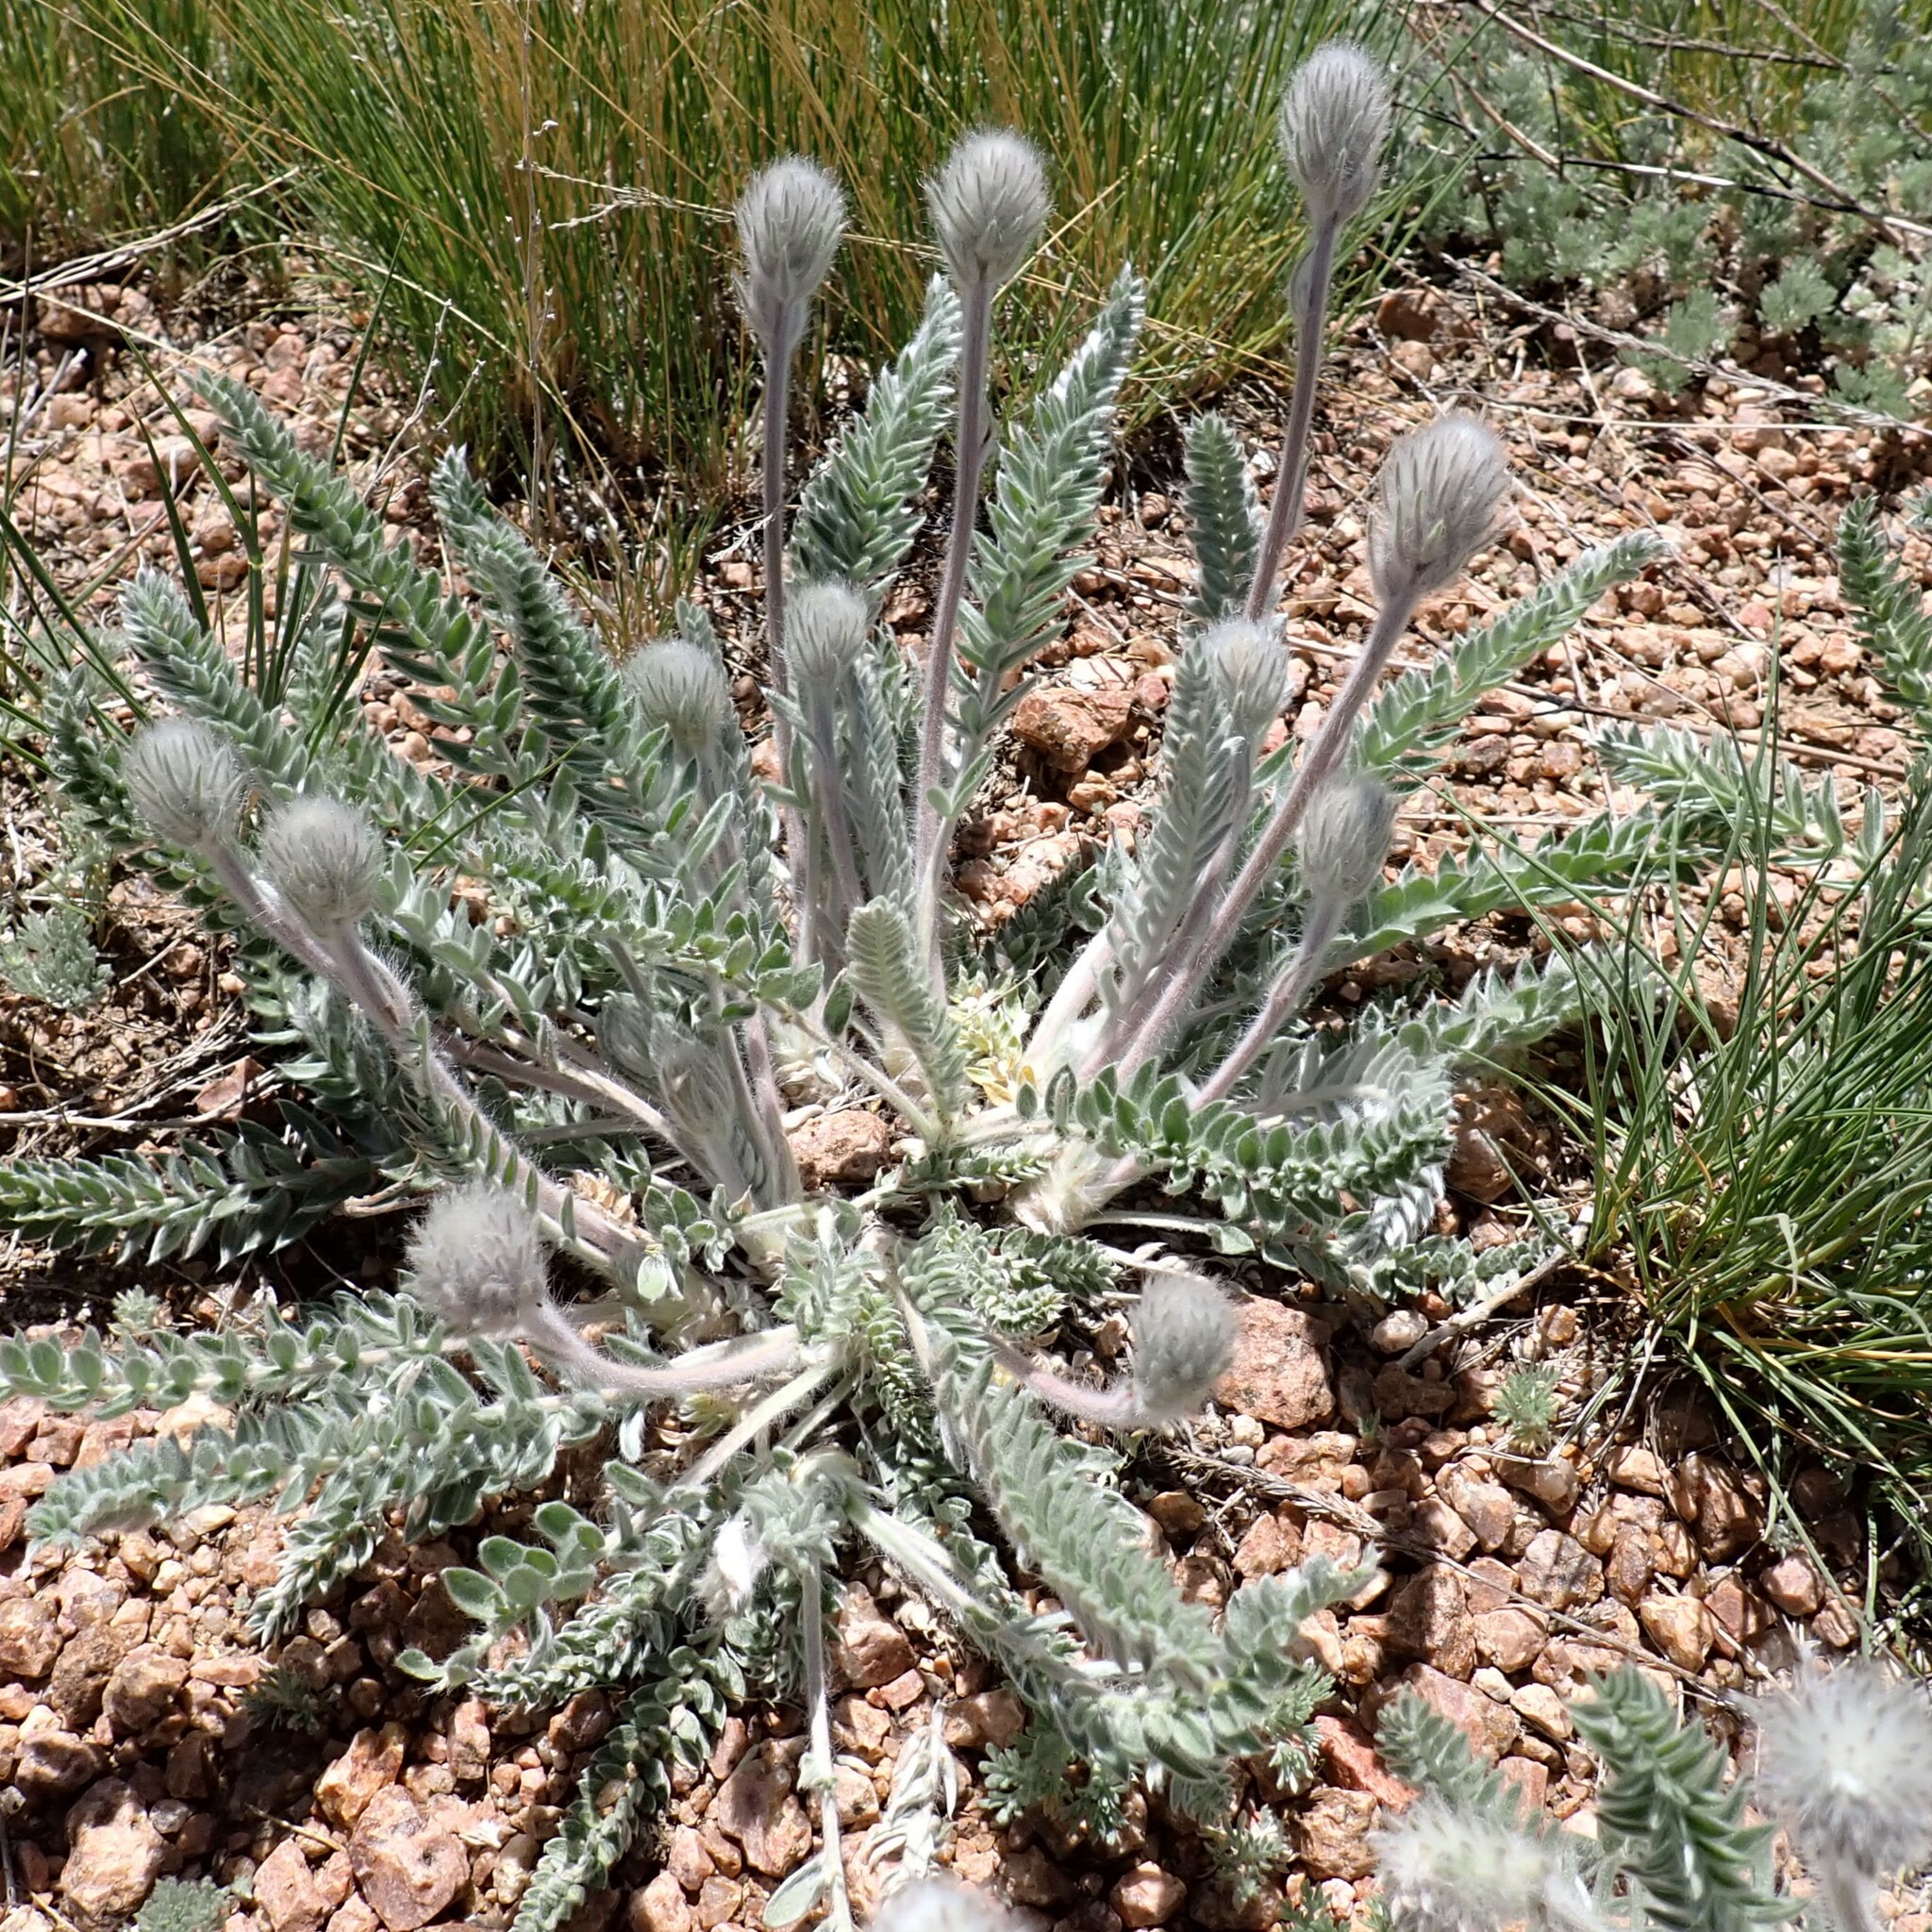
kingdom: Plantae
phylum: Tracheophyta
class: Magnoliopsida
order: Fabales
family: Fabaceae
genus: Oxytropis
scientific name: Oxytropis splendens
